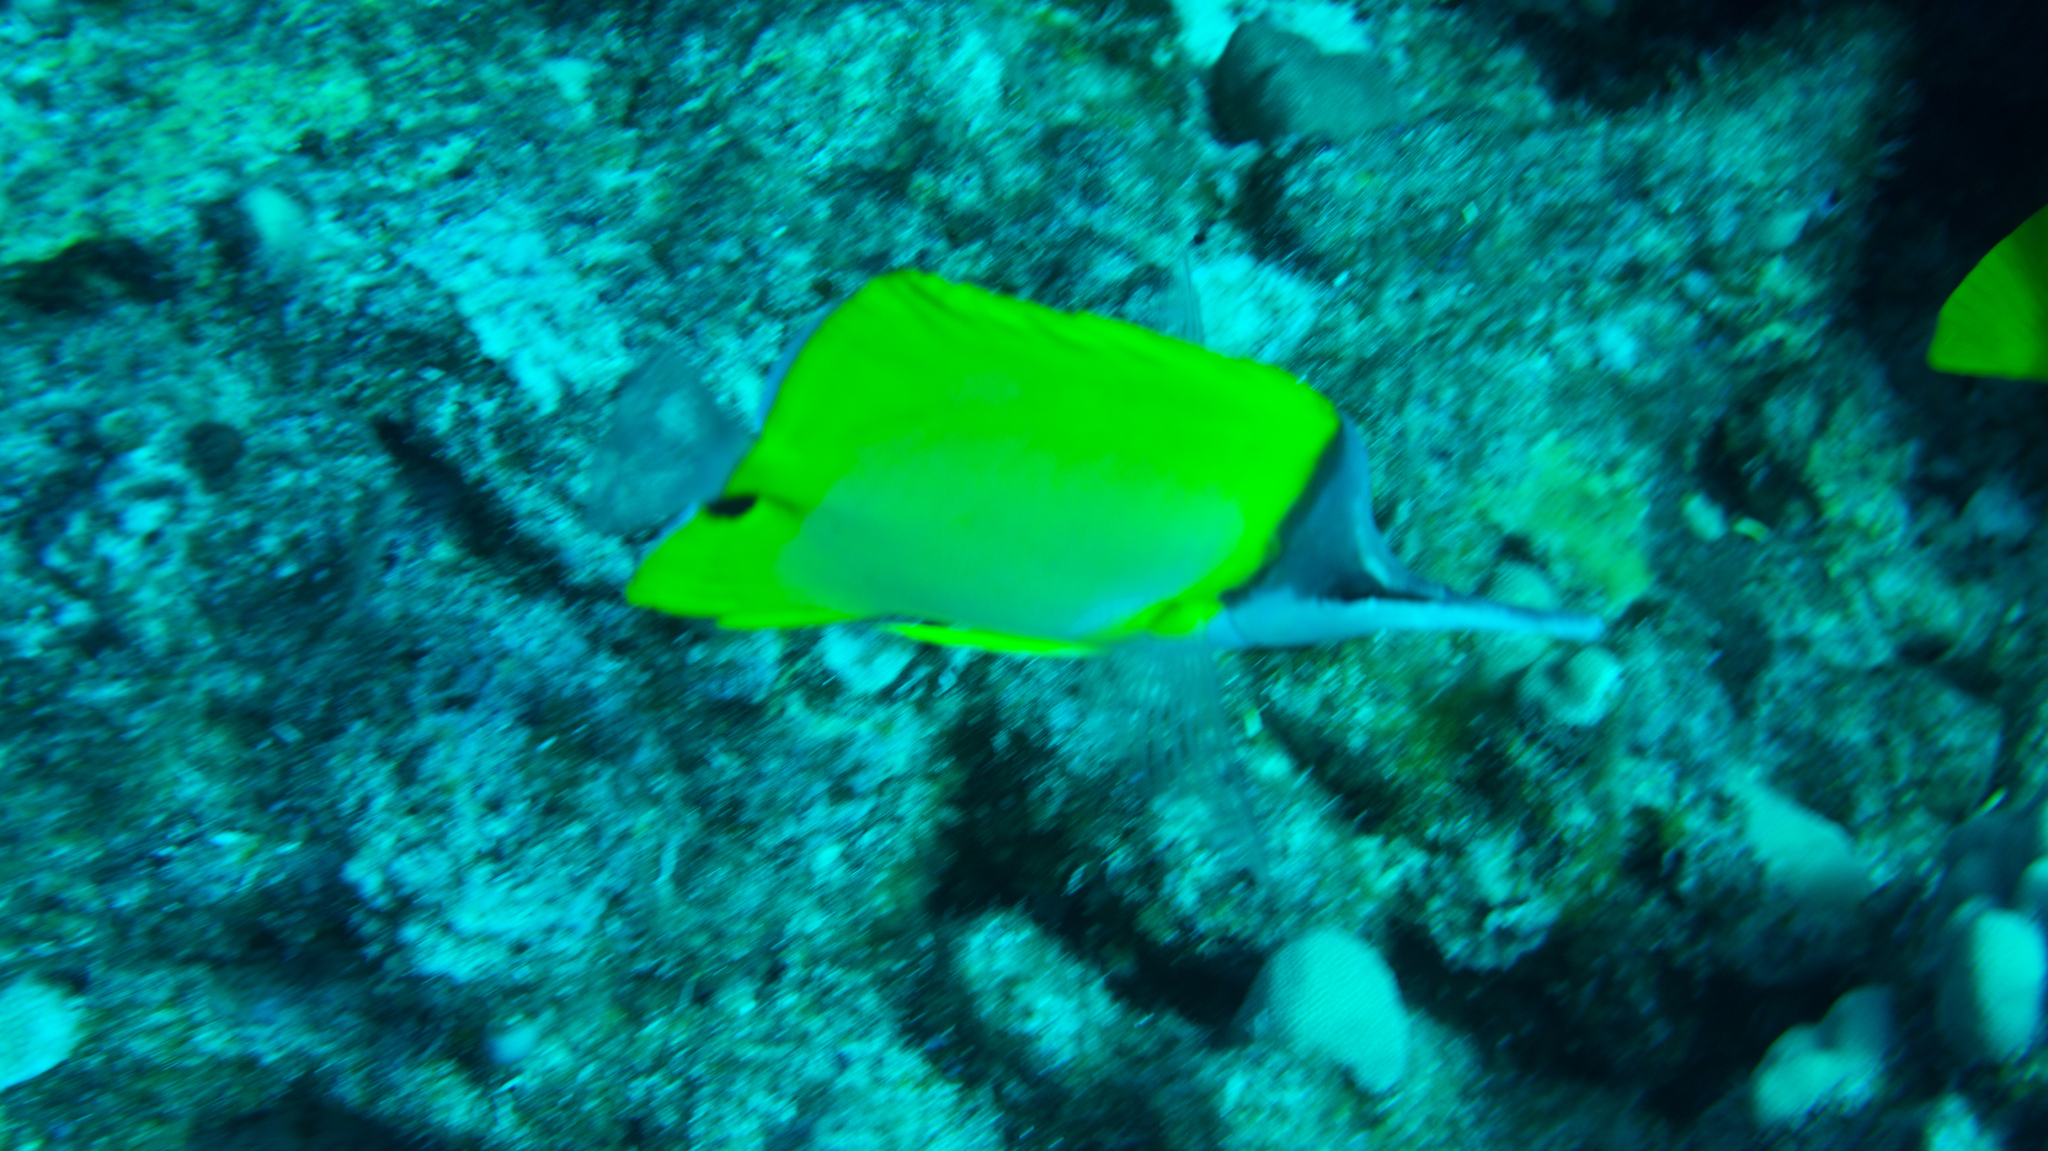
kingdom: Animalia
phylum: Chordata
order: Perciformes
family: Chaetodontidae
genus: Forcipiger
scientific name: Forcipiger longirostris
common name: Longnose butterflyfish
